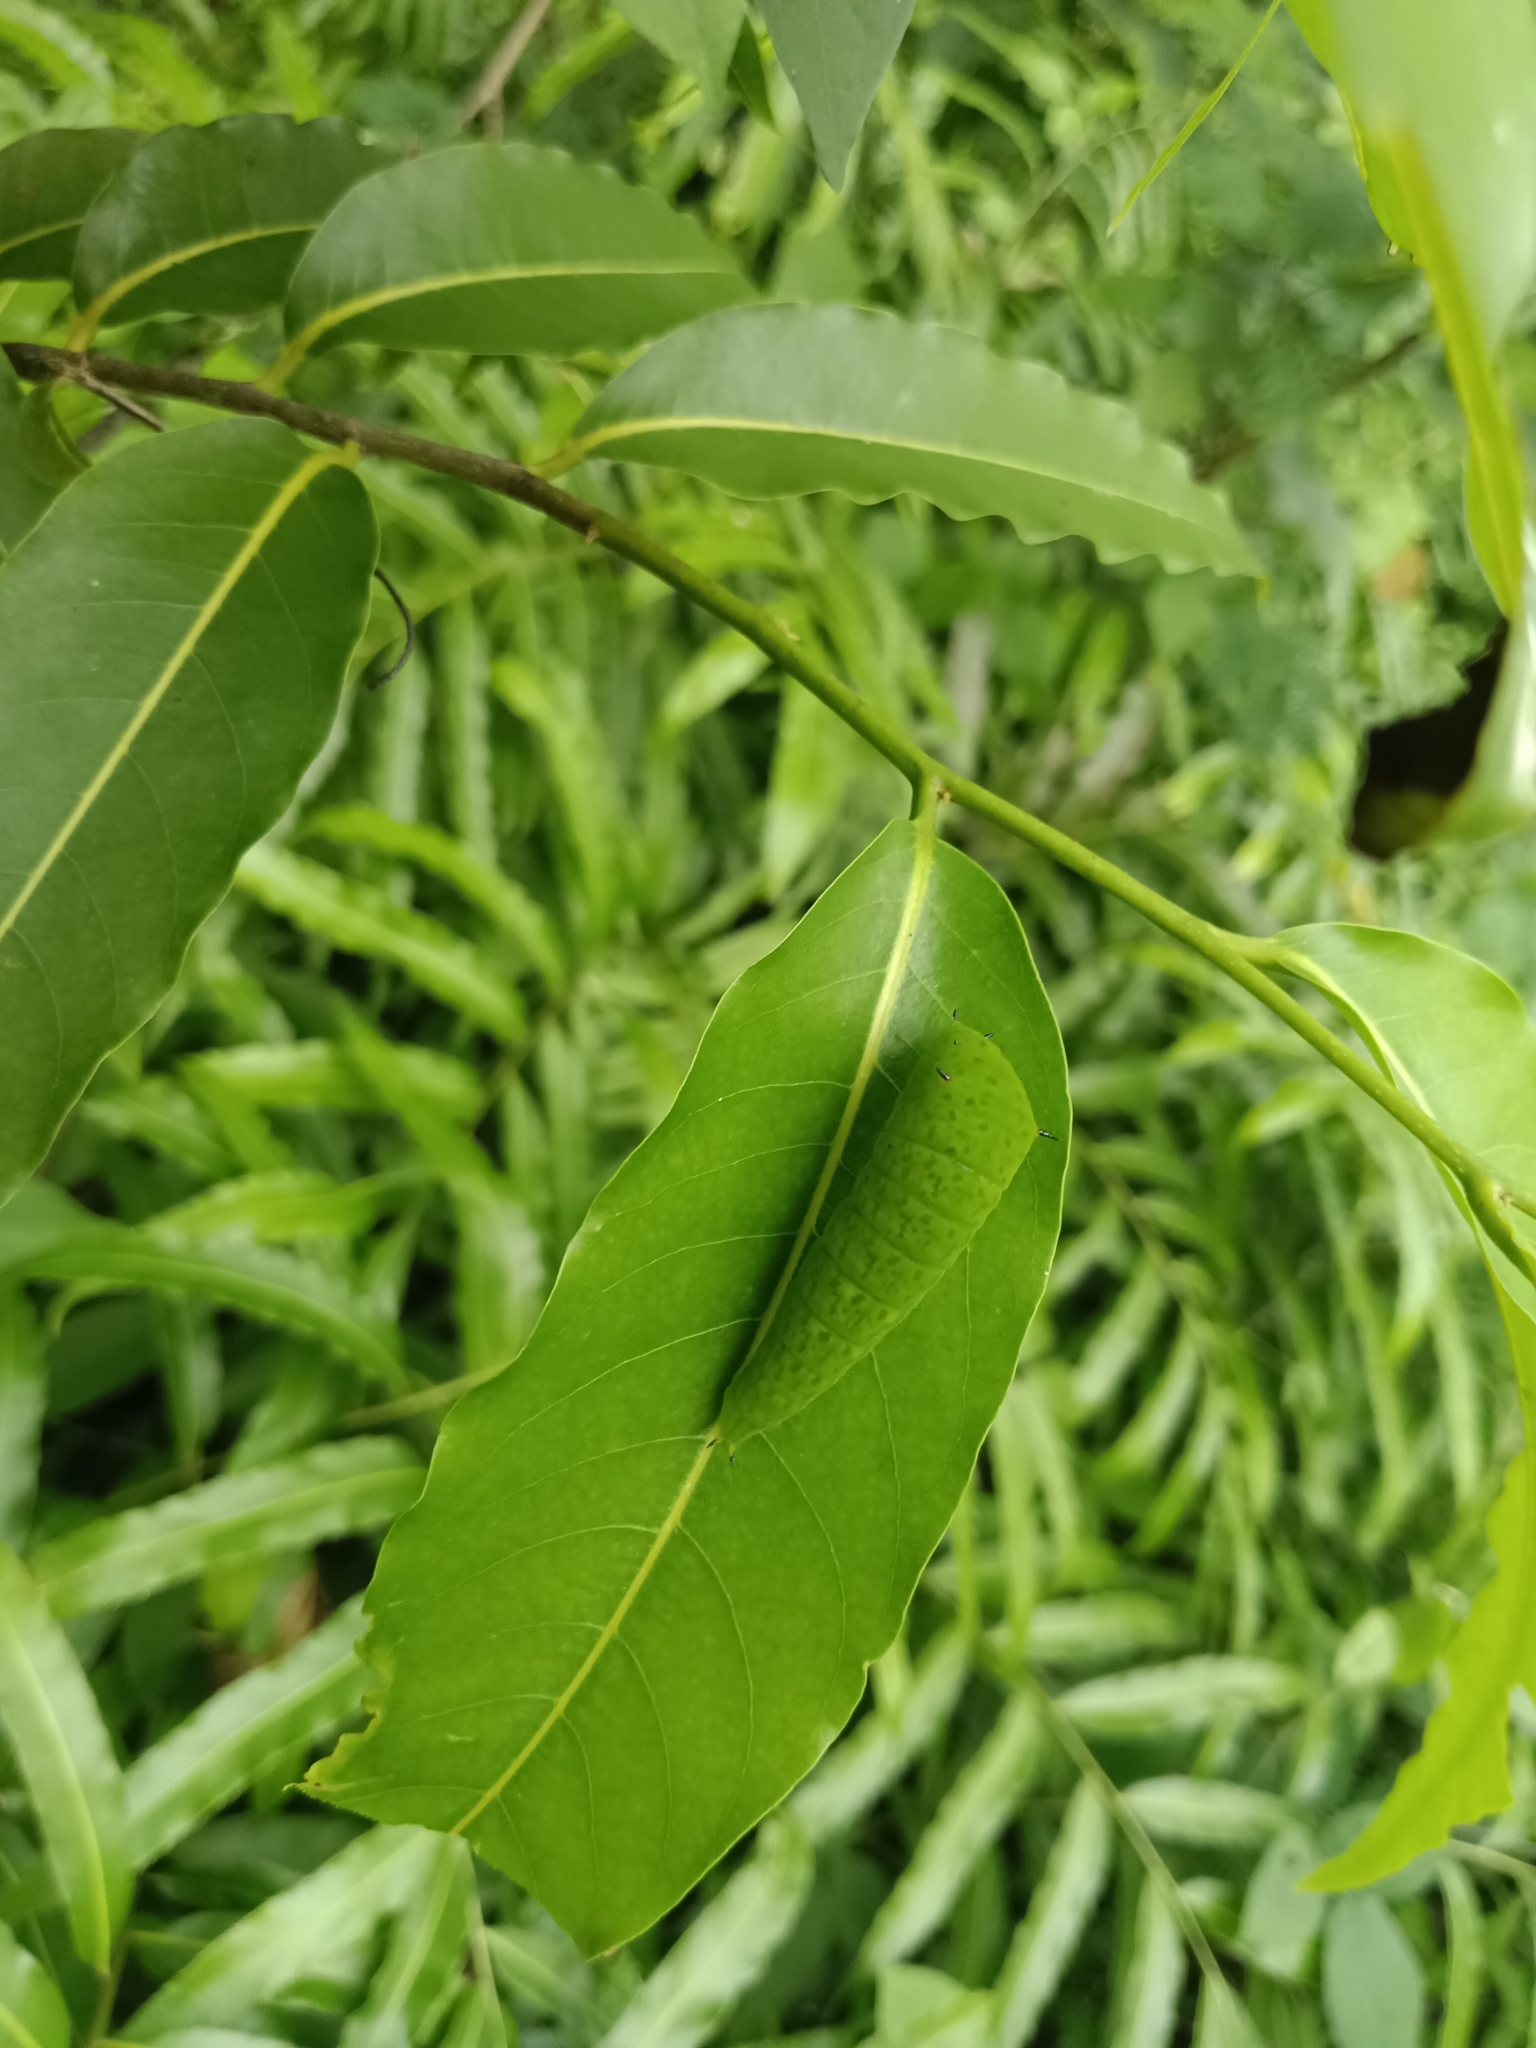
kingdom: Animalia
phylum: Arthropoda
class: Insecta
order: Lepidoptera
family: Papilionidae
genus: Graphium
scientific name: Graphium agamemnon
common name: Tailed jay
